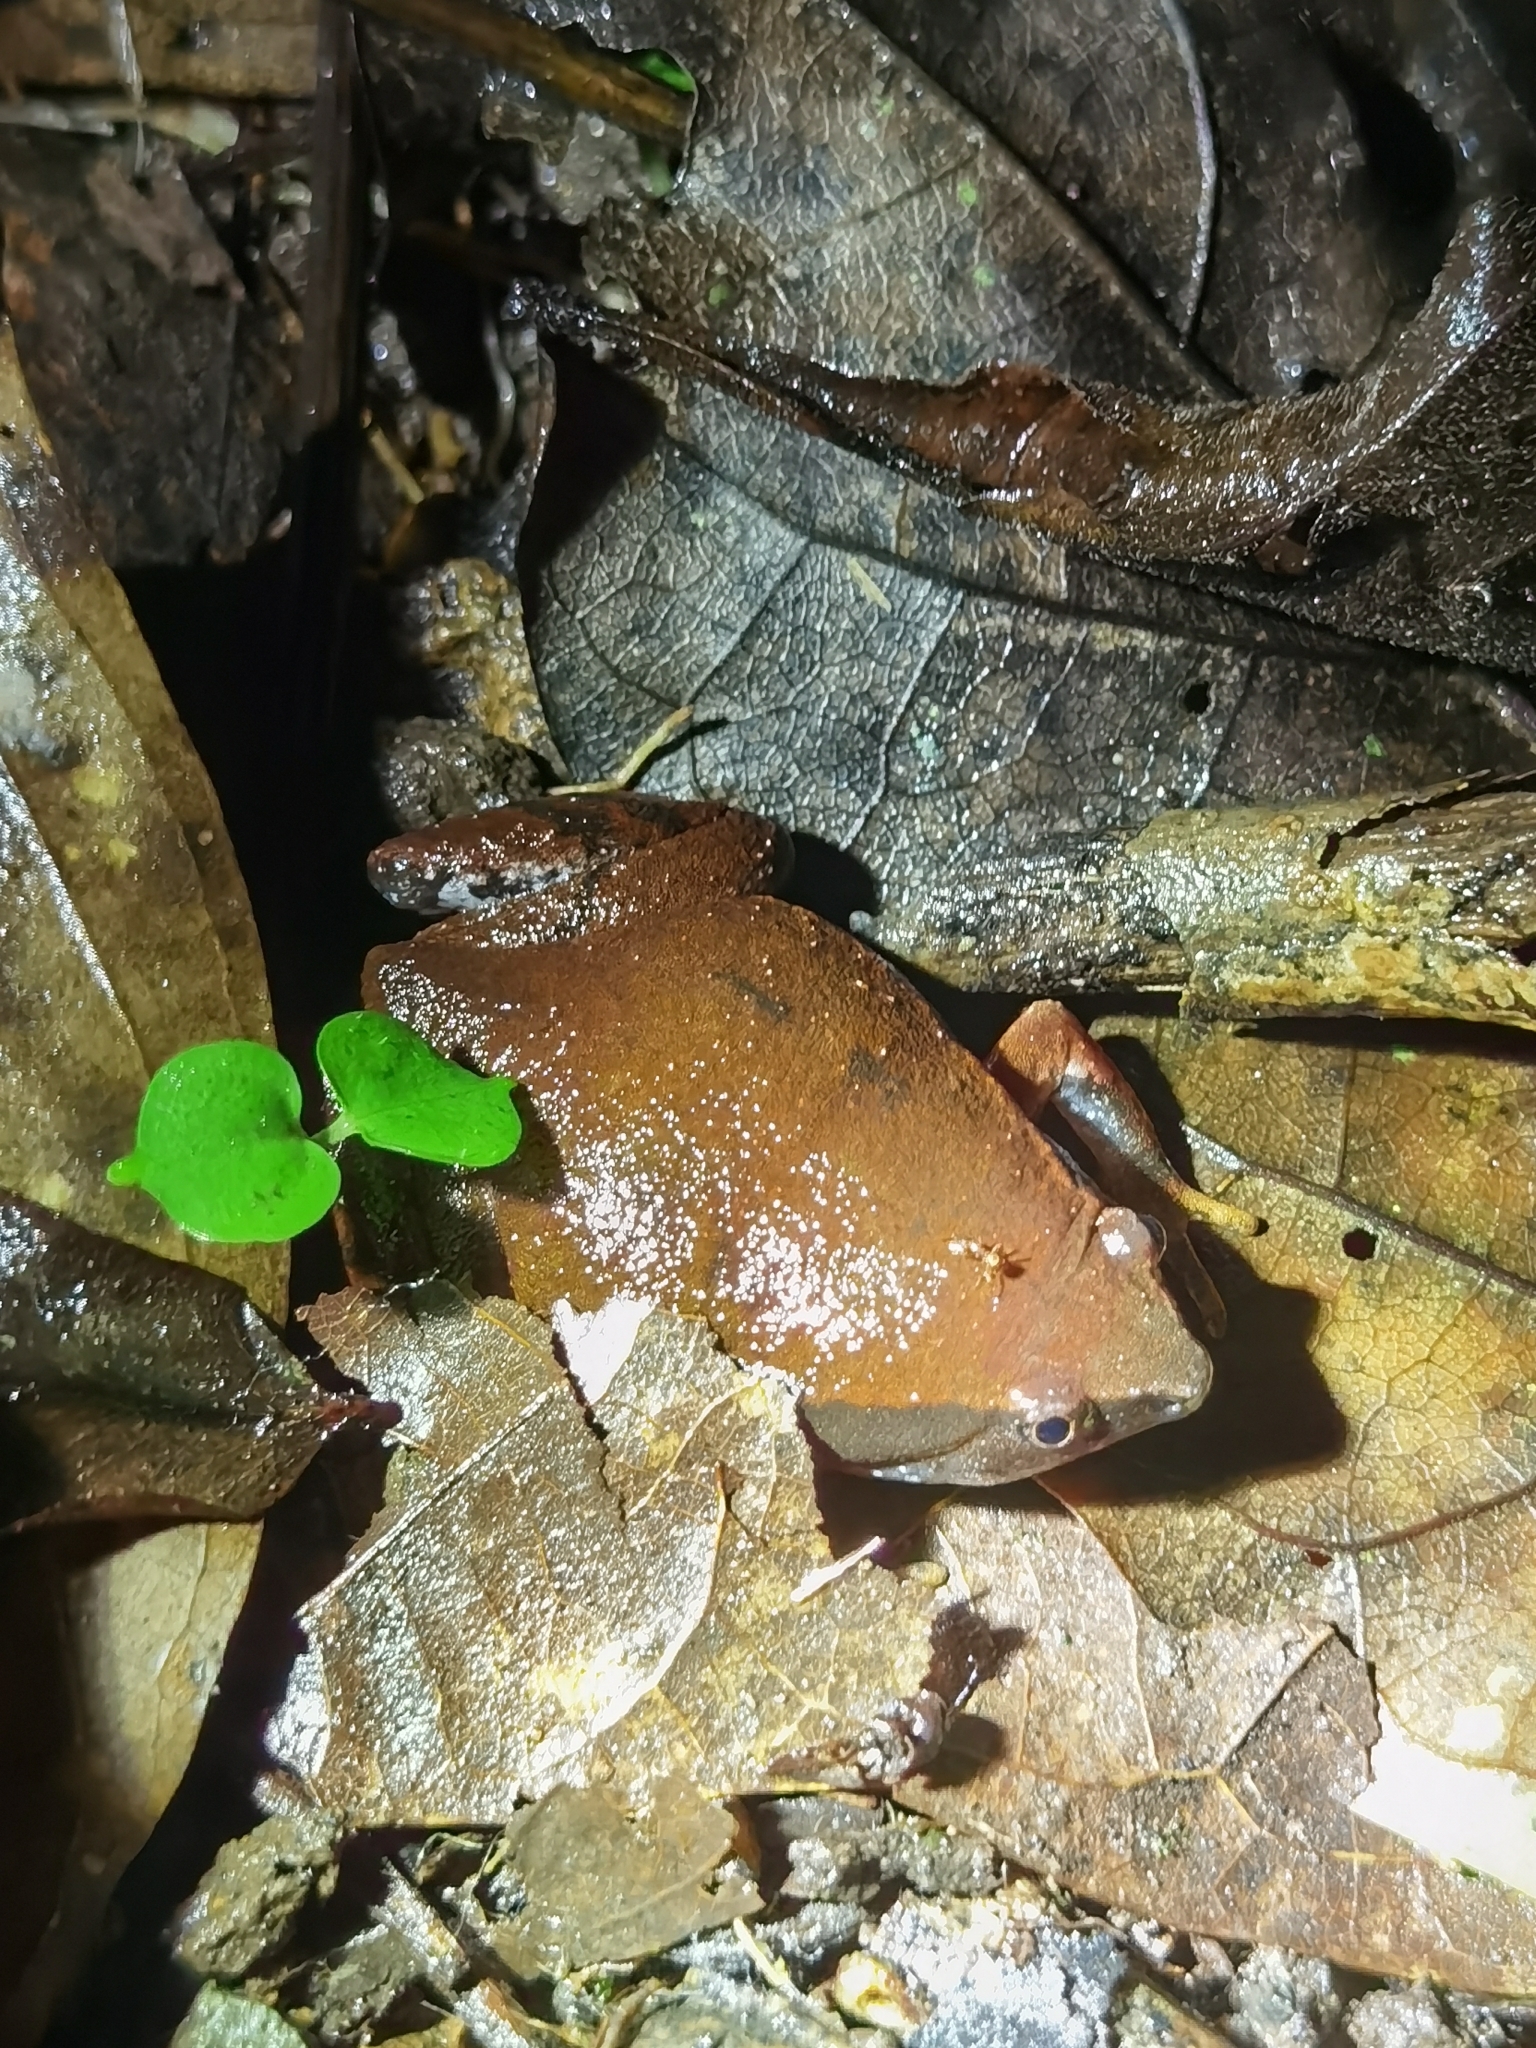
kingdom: Animalia
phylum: Chordata
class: Amphibia
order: Anura
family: Microhylidae
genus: Hypopachus
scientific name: Hypopachus variolosus
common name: Sheep frog
